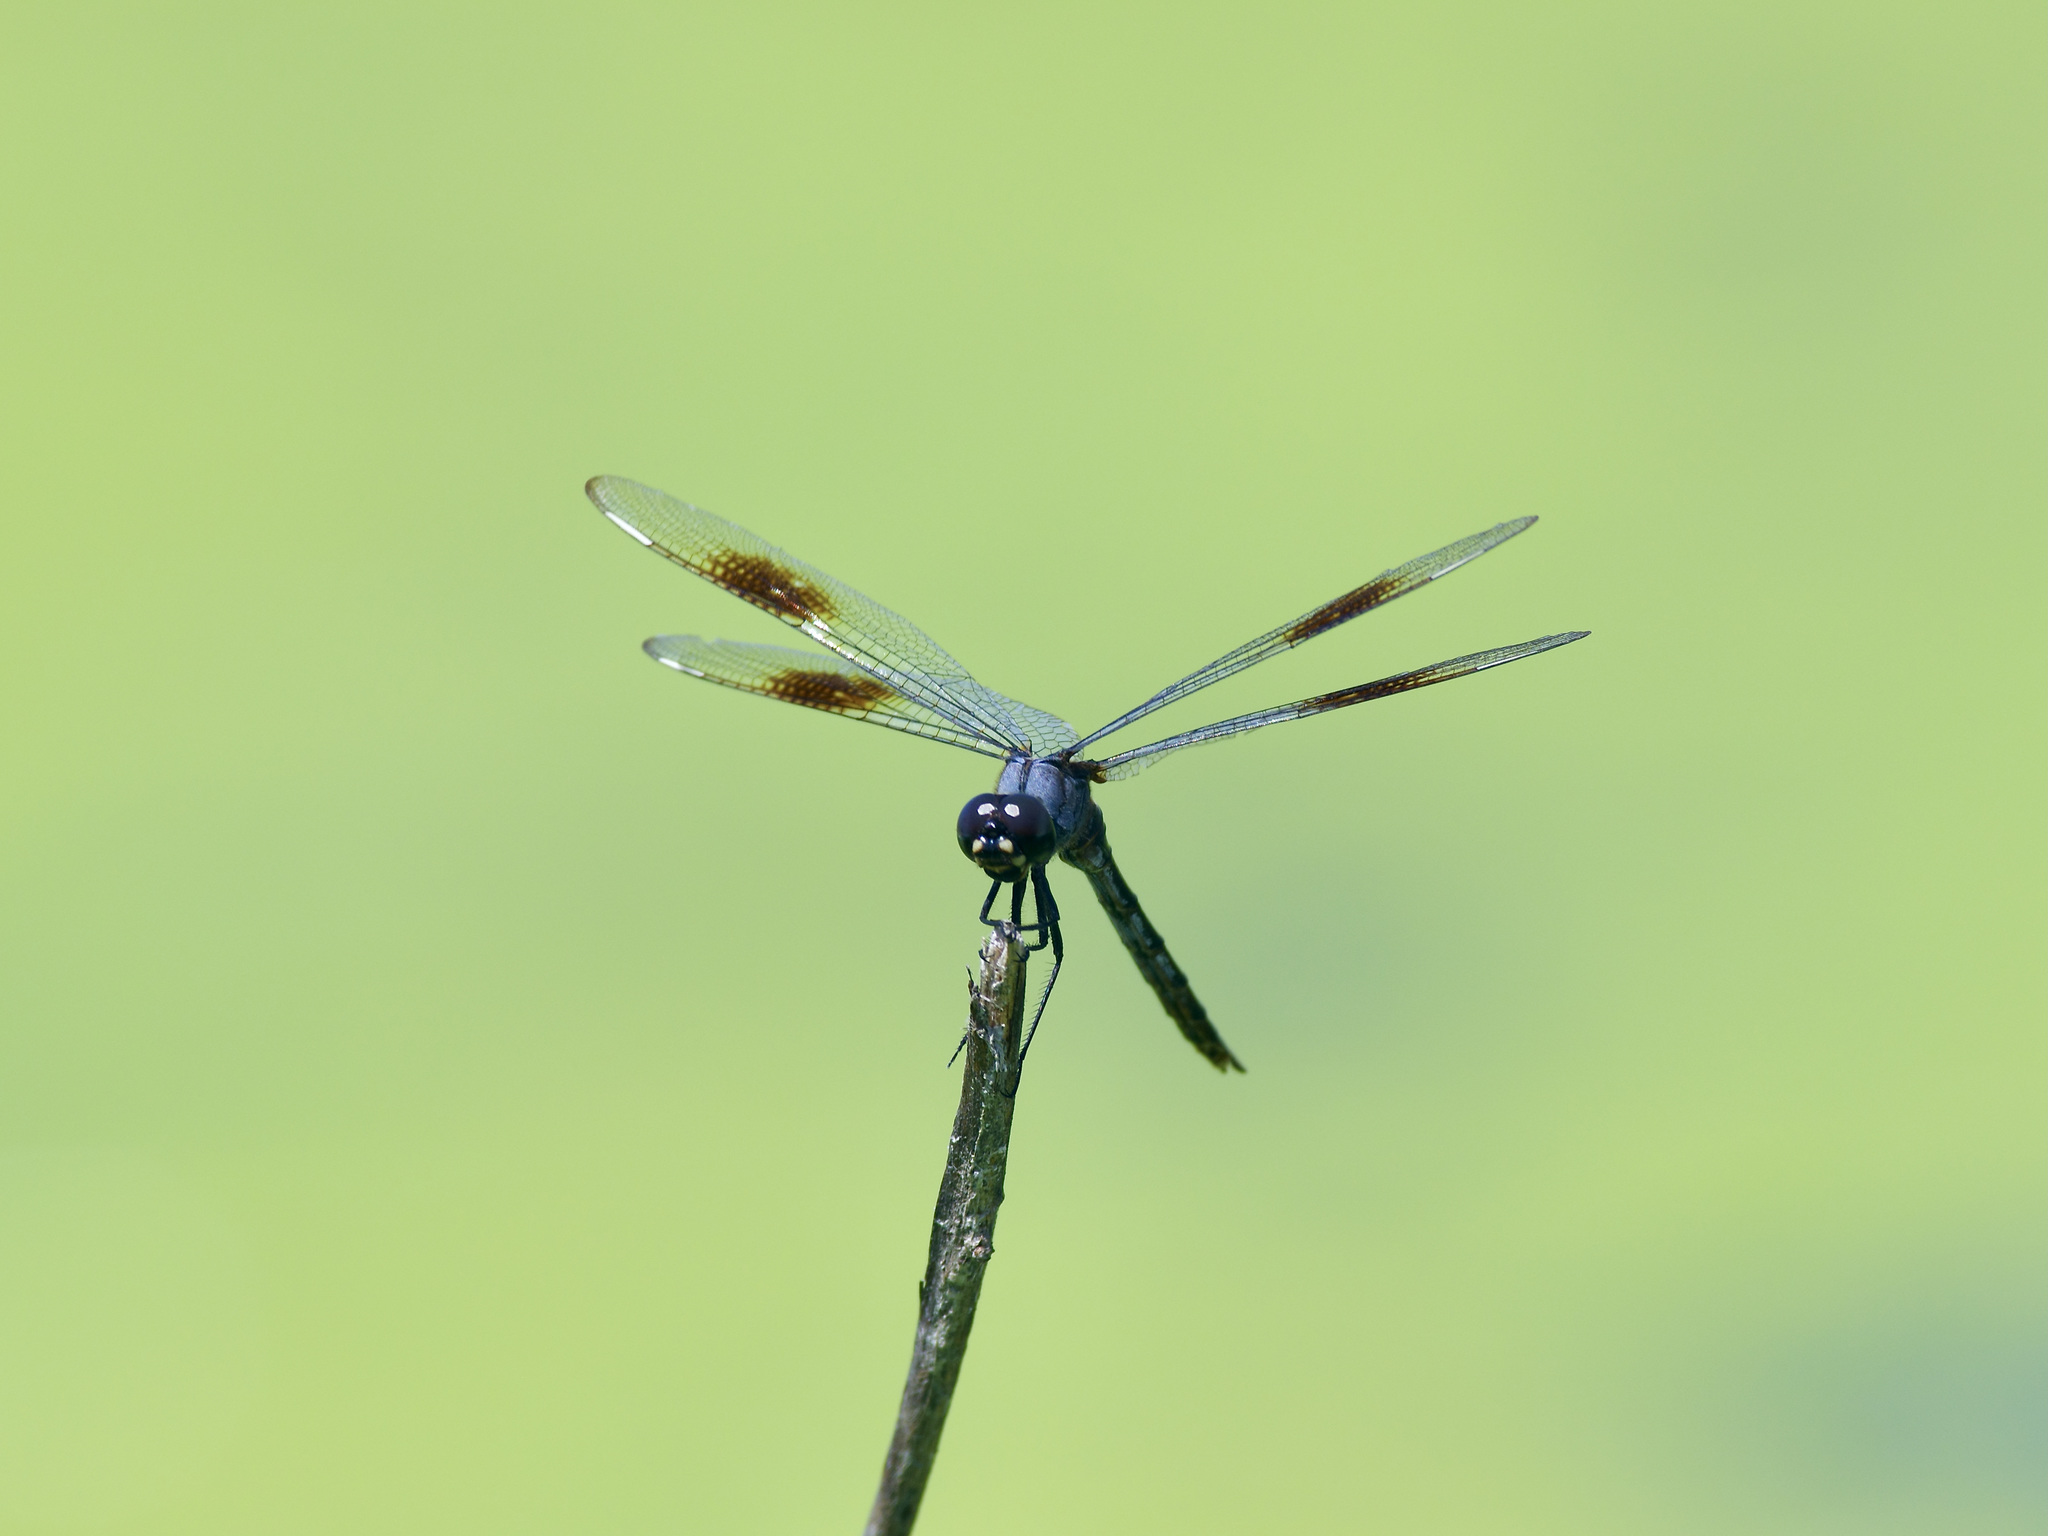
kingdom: Animalia
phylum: Arthropoda
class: Insecta
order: Odonata
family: Libellulidae
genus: Brachymesia
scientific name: Brachymesia gravida
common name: Four-spotted pennant
